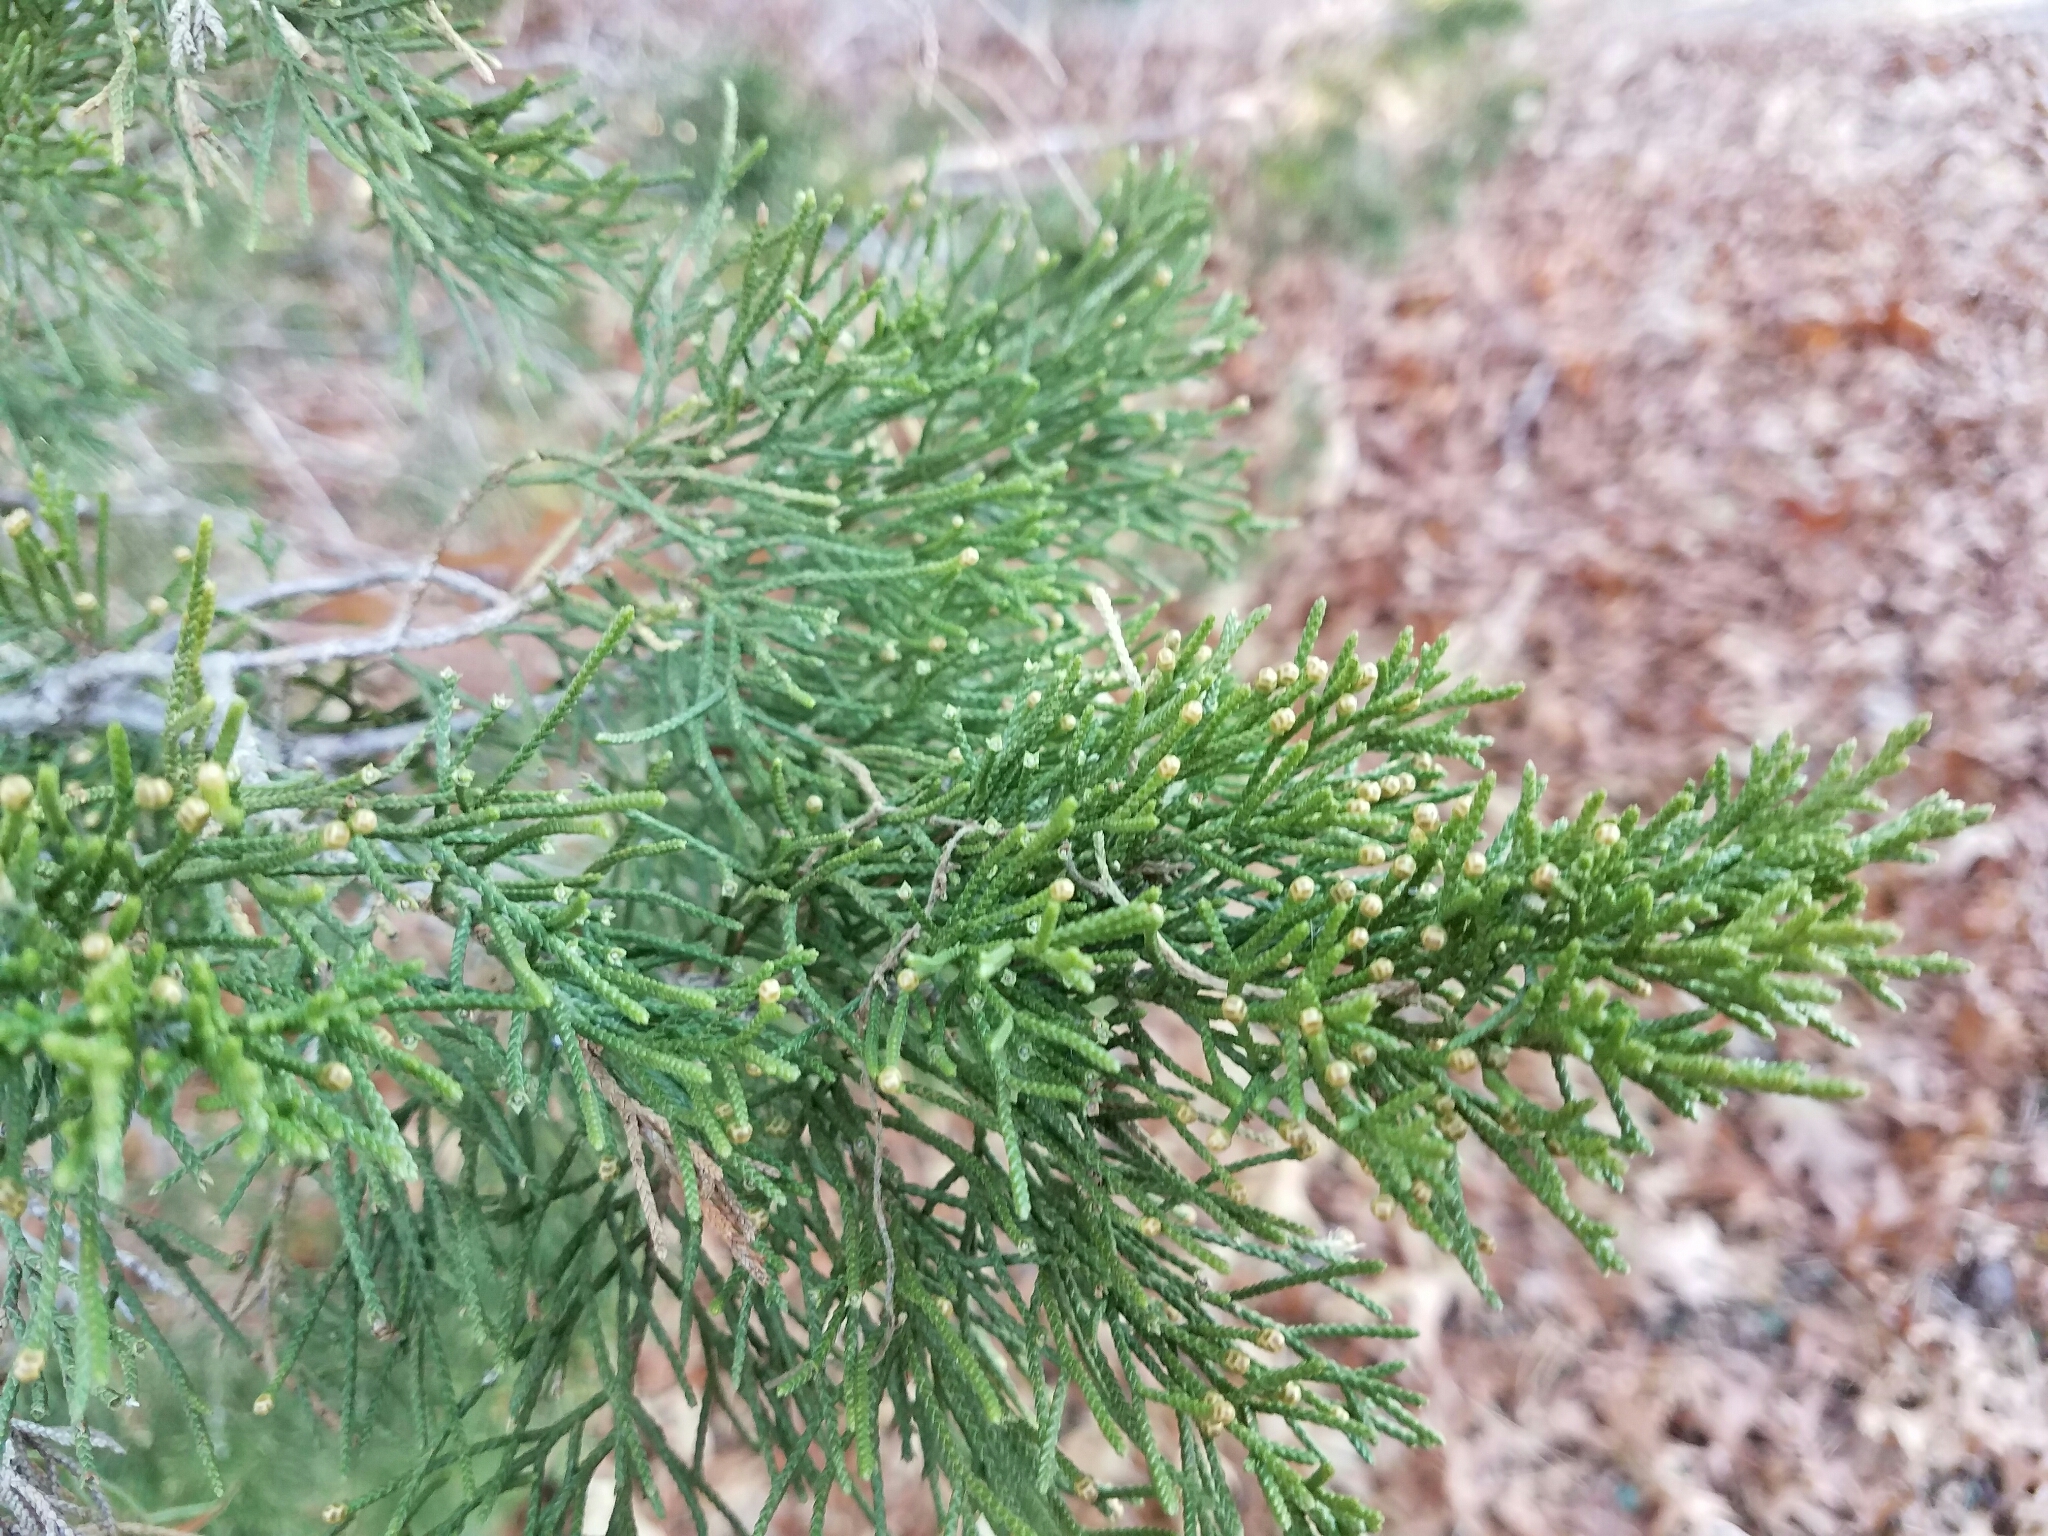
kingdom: Plantae
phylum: Tracheophyta
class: Pinopsida
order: Pinales
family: Cupressaceae
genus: Juniperus
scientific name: Juniperus virginiana
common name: Red juniper
